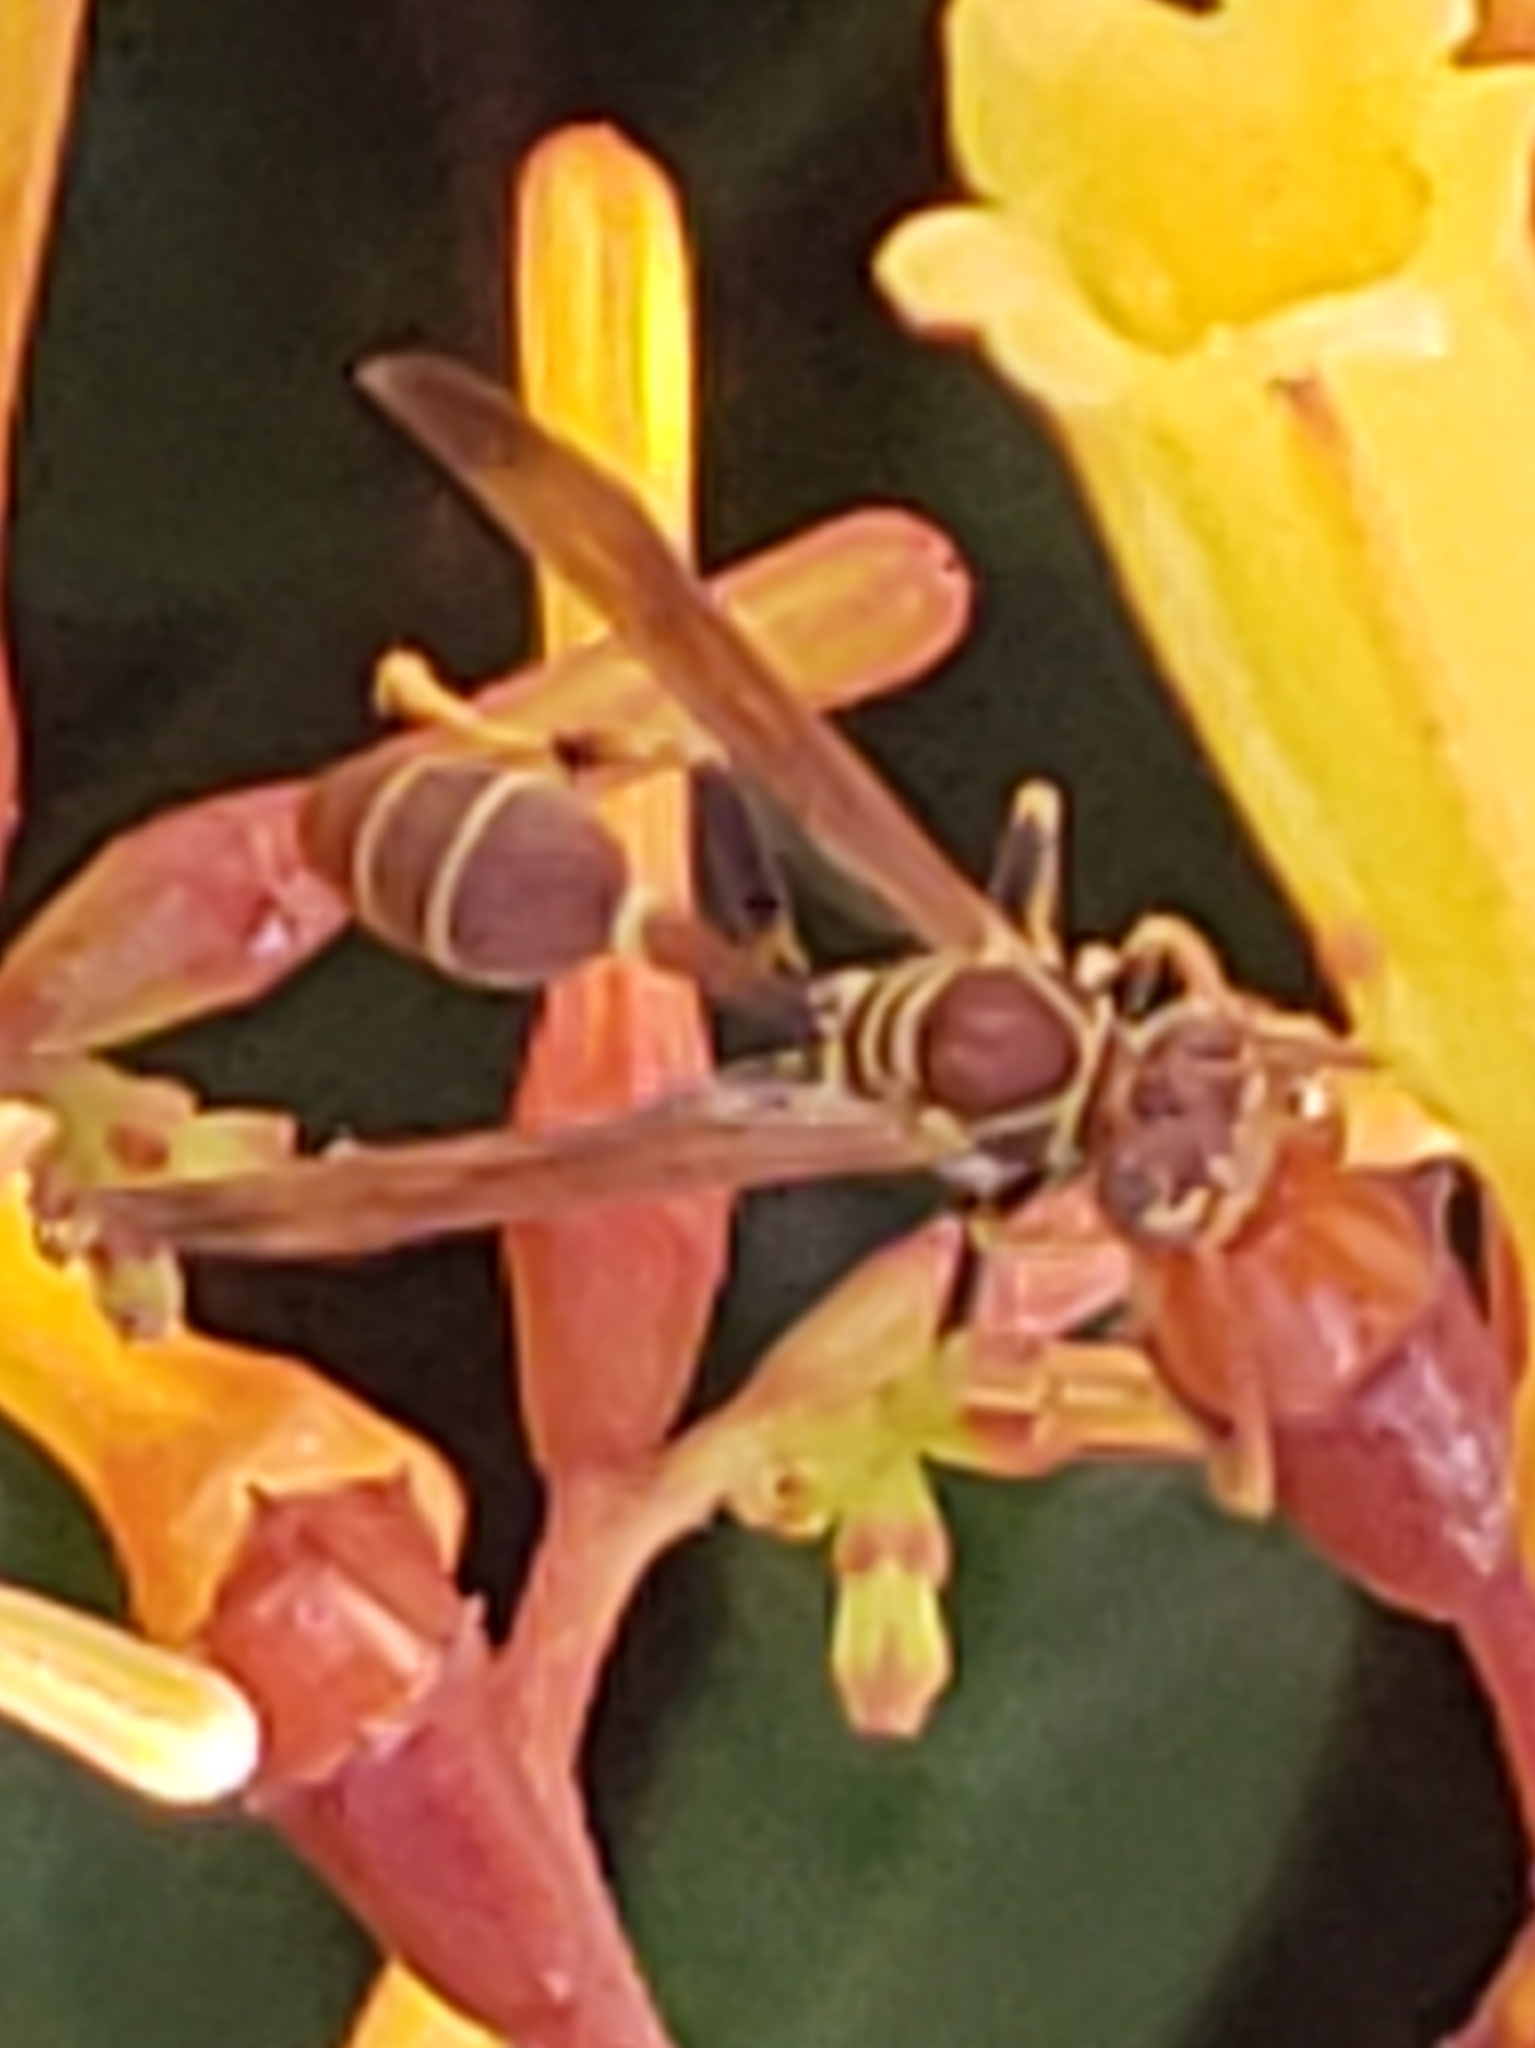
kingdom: Animalia
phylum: Arthropoda
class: Insecta
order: Hymenoptera
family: Vespidae
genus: Mischocyttarus
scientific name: Mischocyttarus mexicanus
